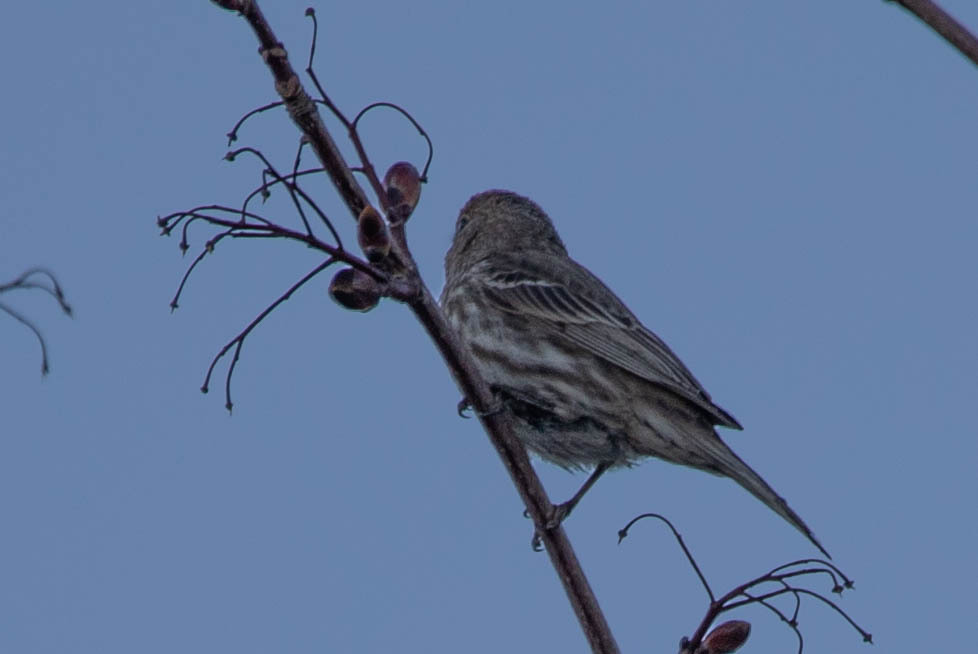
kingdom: Animalia
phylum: Chordata
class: Aves
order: Passeriformes
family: Fringillidae
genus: Haemorhous
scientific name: Haemorhous mexicanus
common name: House finch
